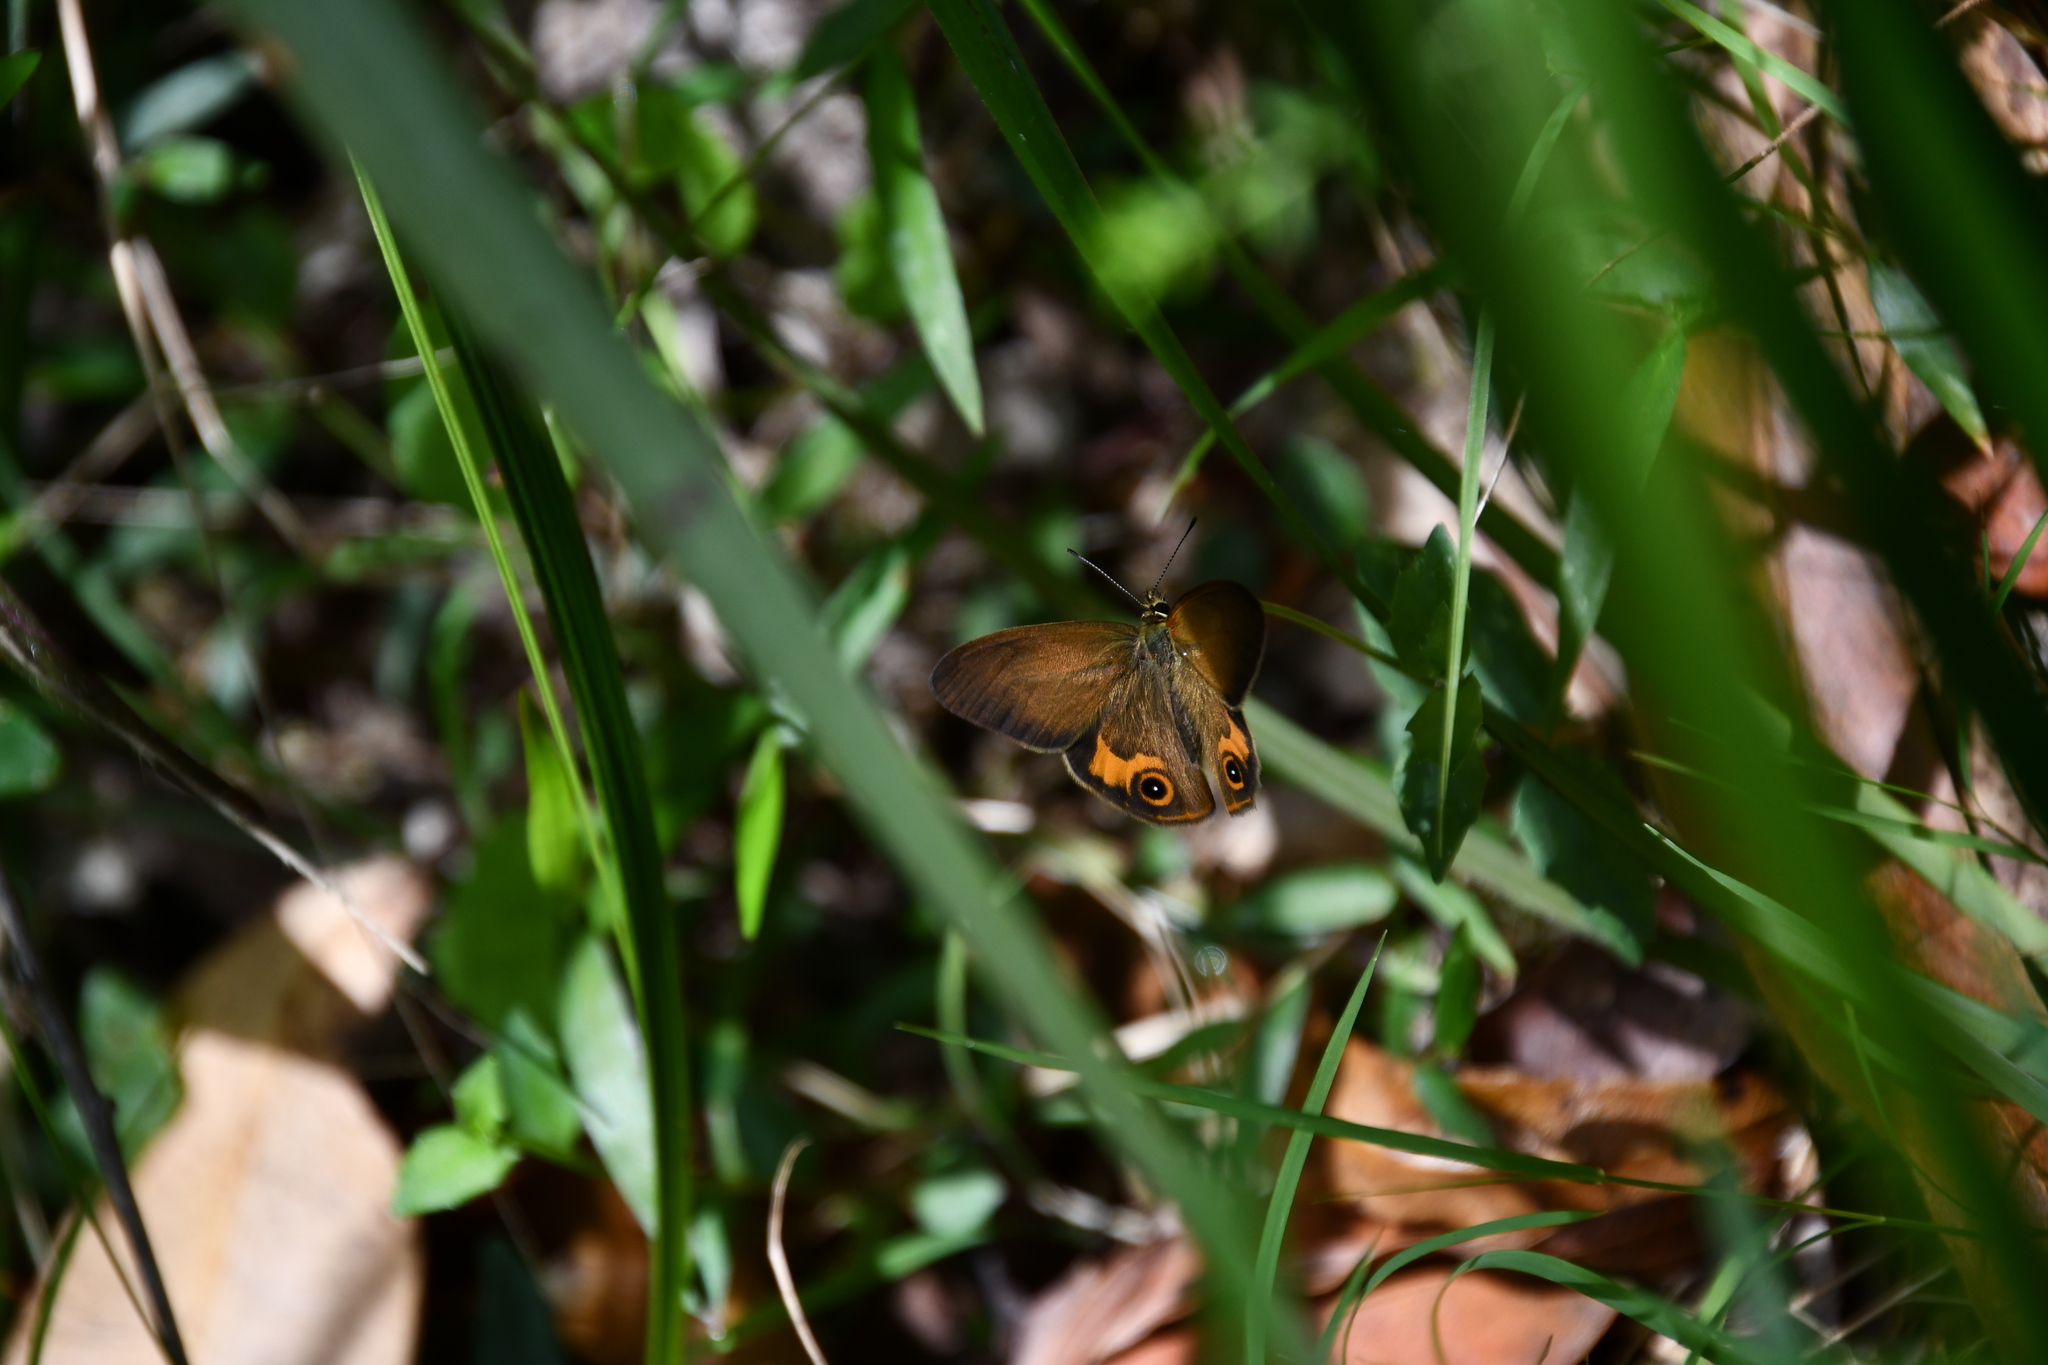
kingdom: Animalia
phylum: Arthropoda
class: Insecta
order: Lepidoptera
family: Nymphalidae
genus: Hypocysta
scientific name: Hypocysta metirius
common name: Brown ringlet
